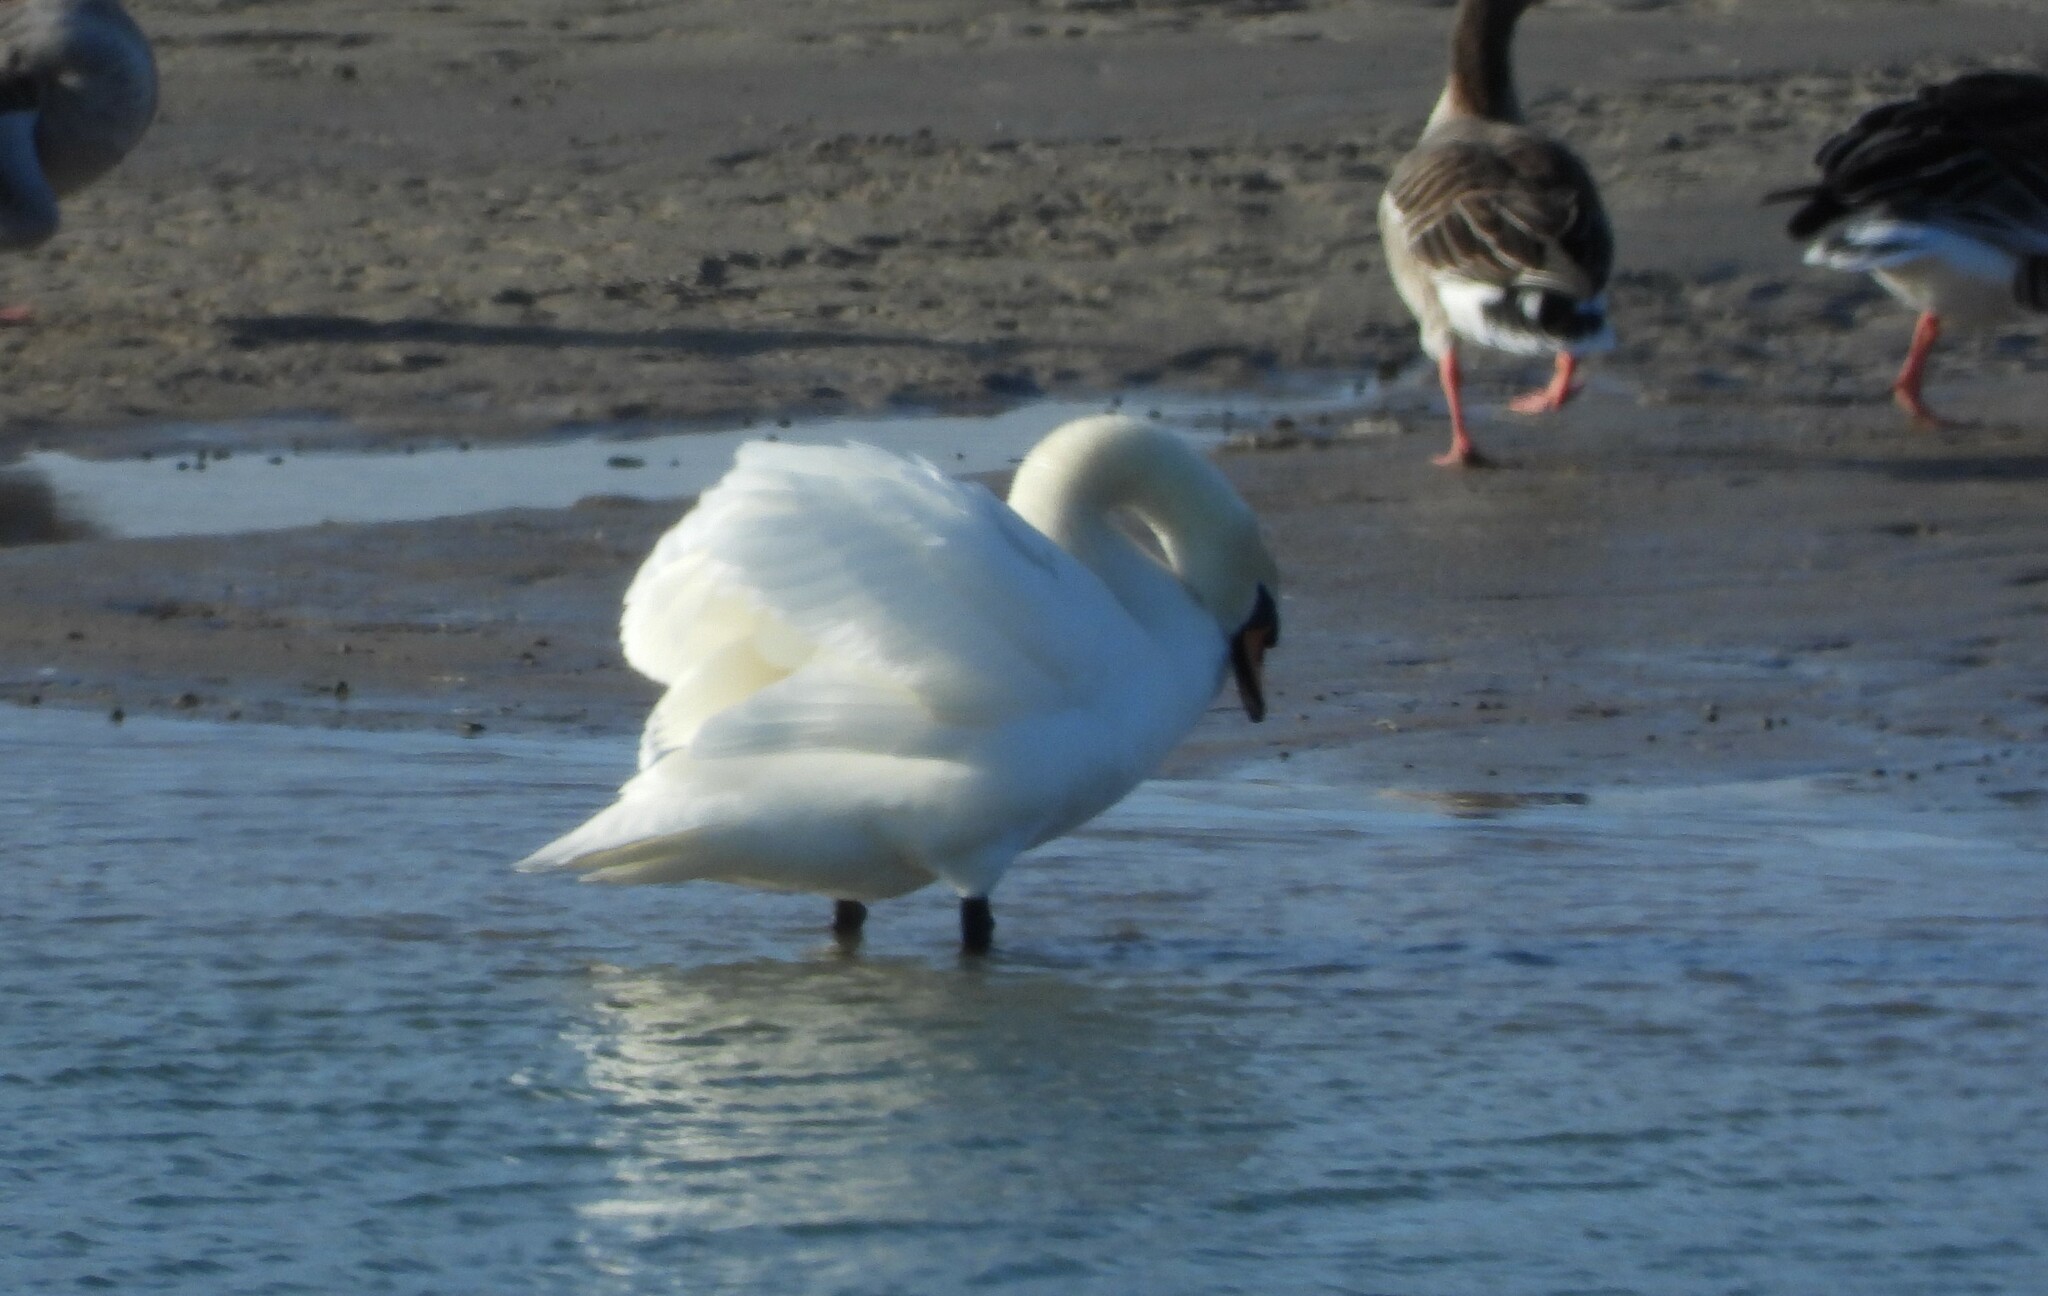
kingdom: Animalia
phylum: Chordata
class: Aves
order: Anseriformes
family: Anatidae
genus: Cygnus
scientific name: Cygnus olor
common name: Mute swan
